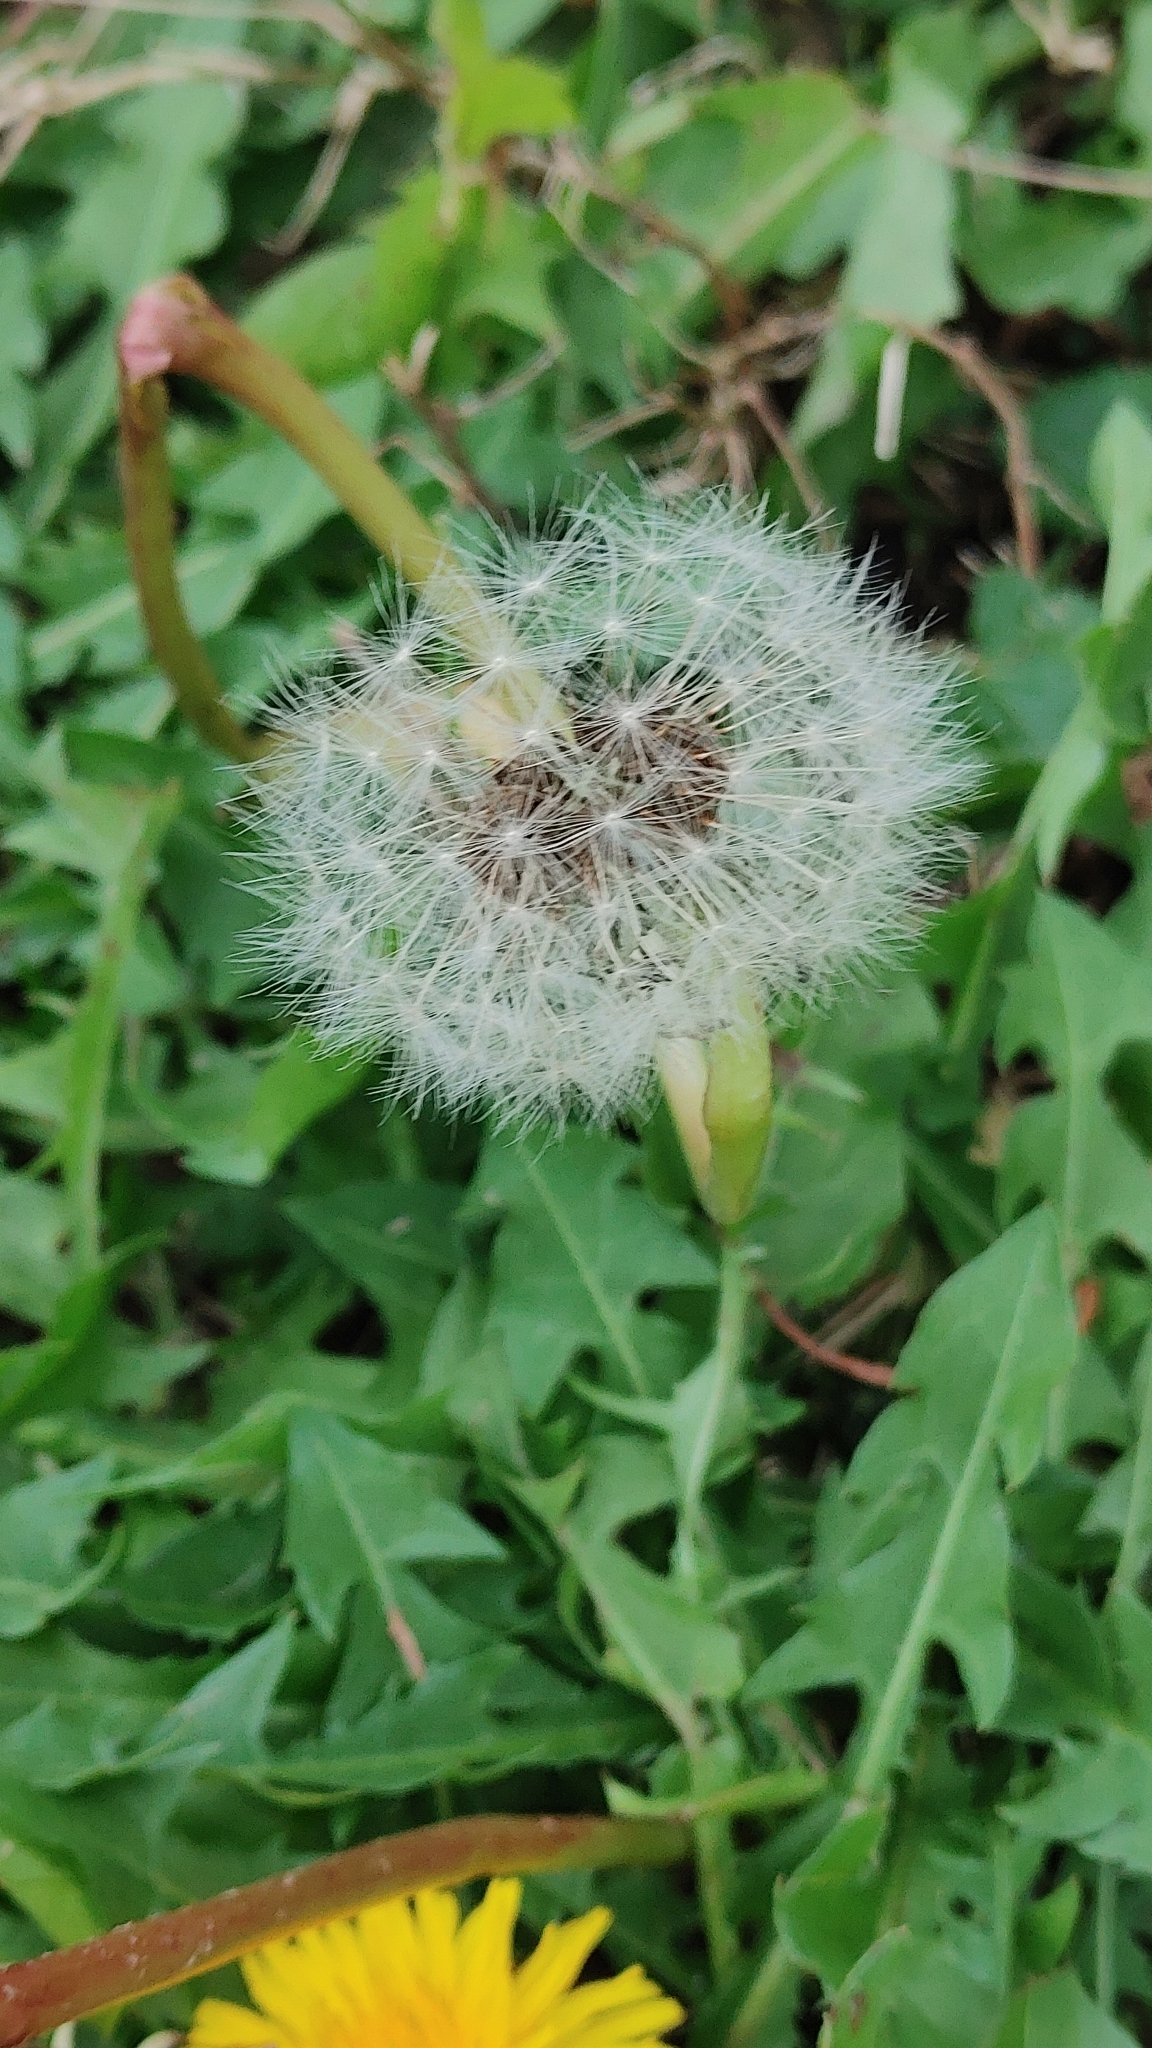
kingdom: Plantae
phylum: Tracheophyta
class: Magnoliopsida
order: Asterales
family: Asteraceae
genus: Taraxacum
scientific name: Taraxacum officinale
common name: Common dandelion
